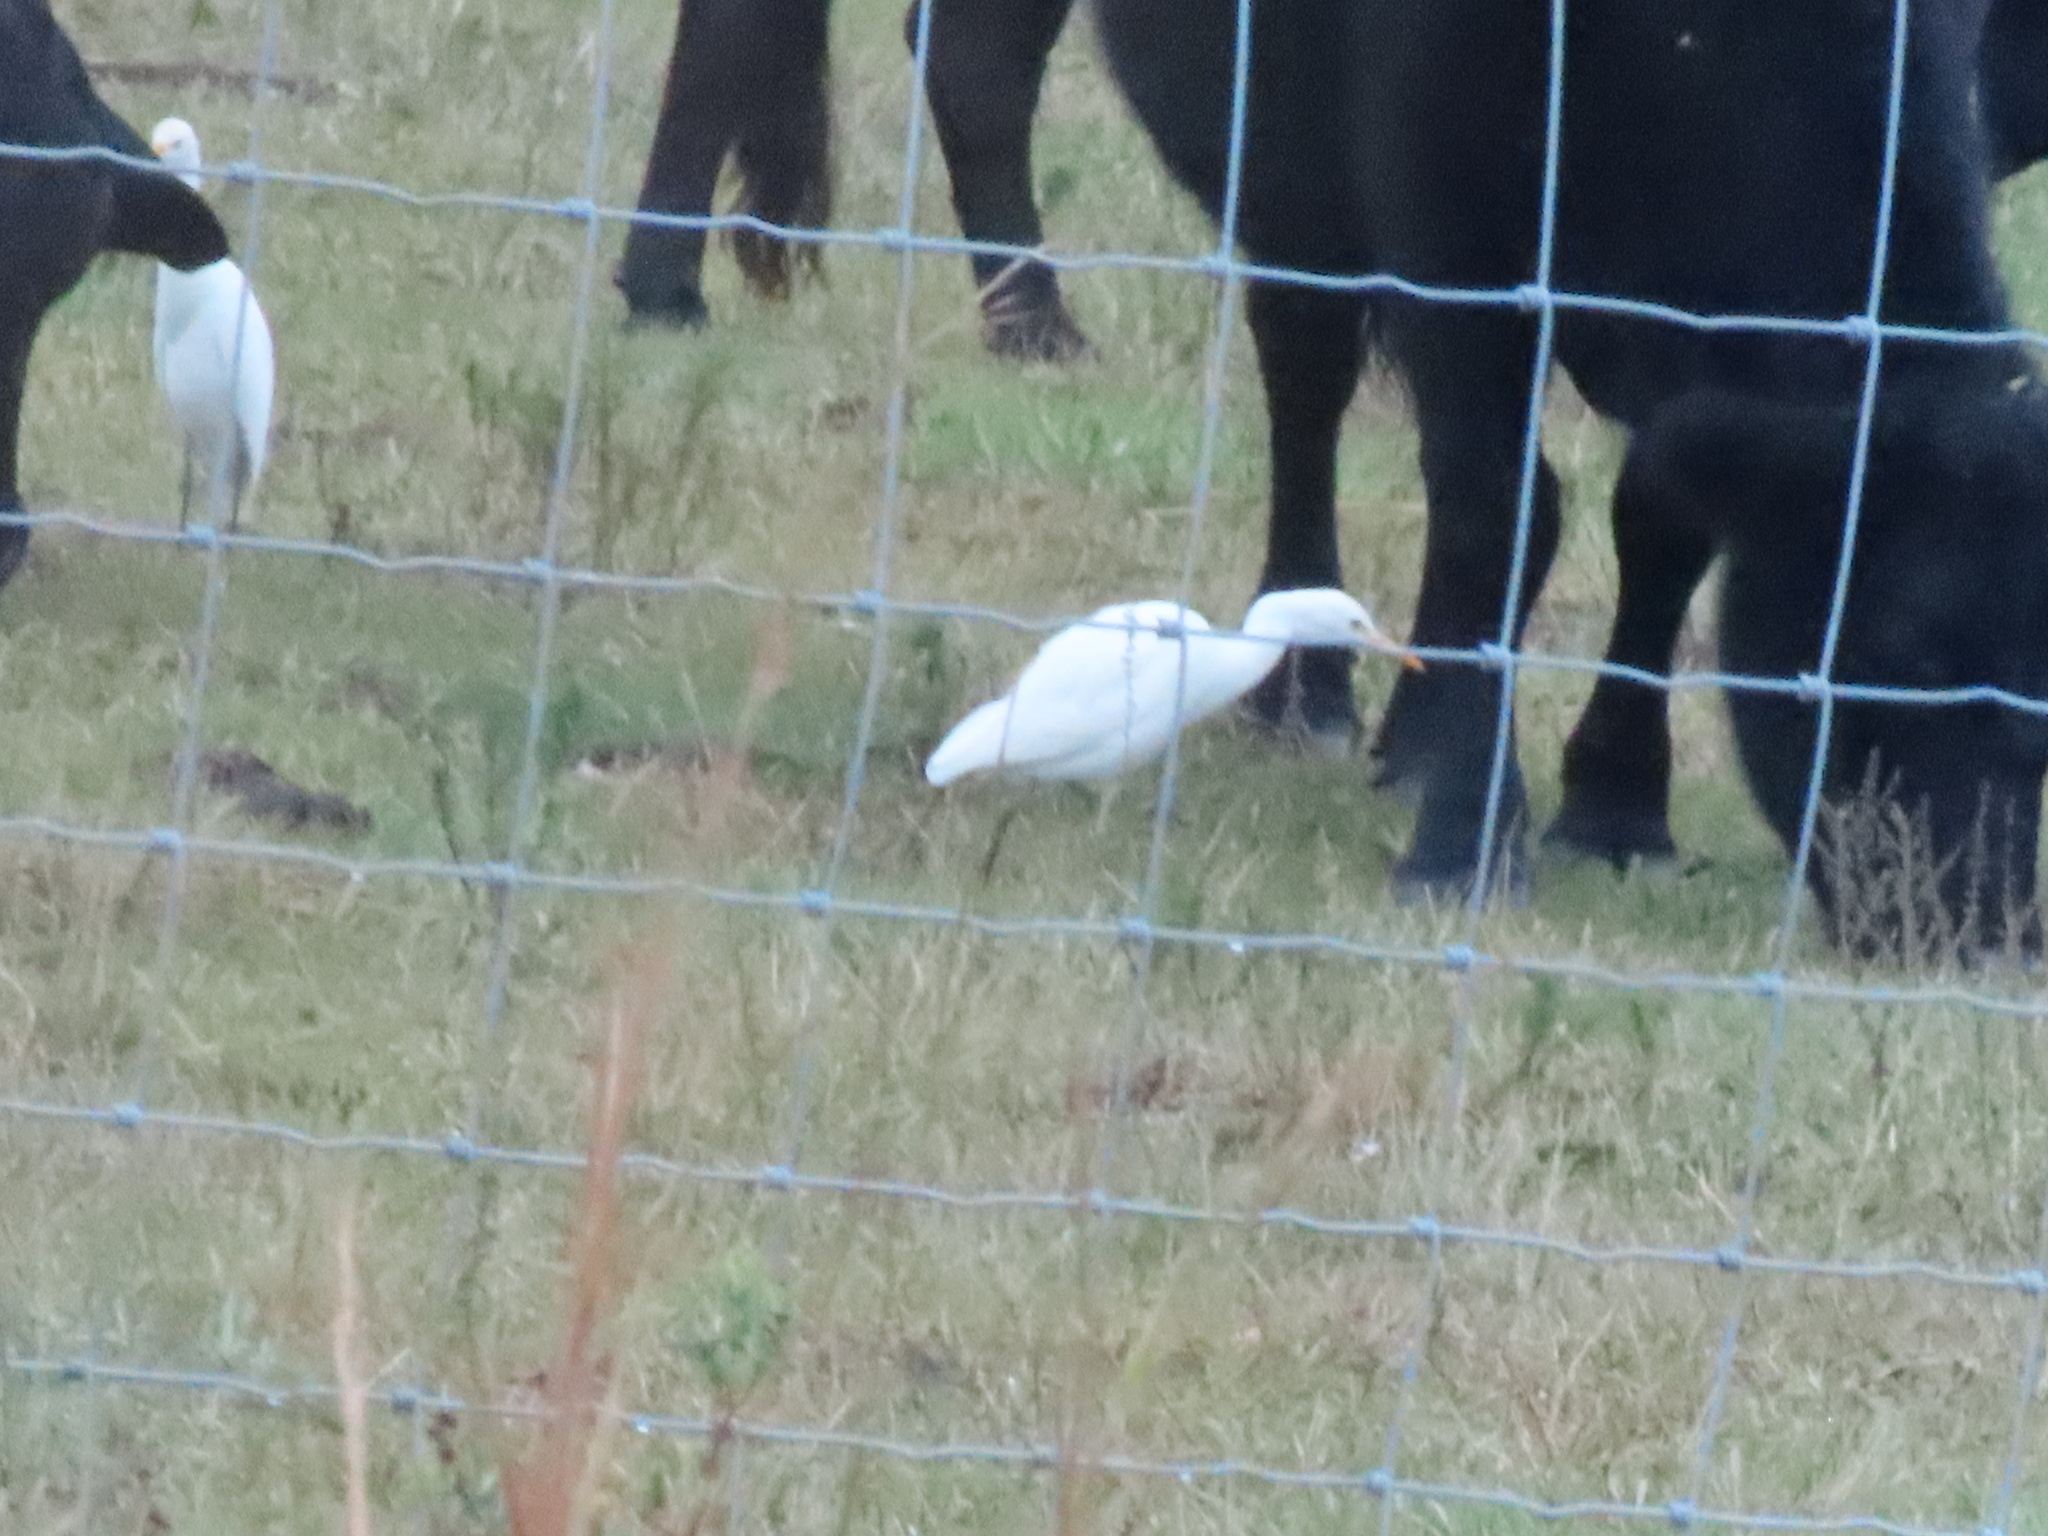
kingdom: Animalia
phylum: Chordata
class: Aves
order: Pelecaniformes
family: Ardeidae
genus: Bubulcus
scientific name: Bubulcus ibis
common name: Cattle egret
